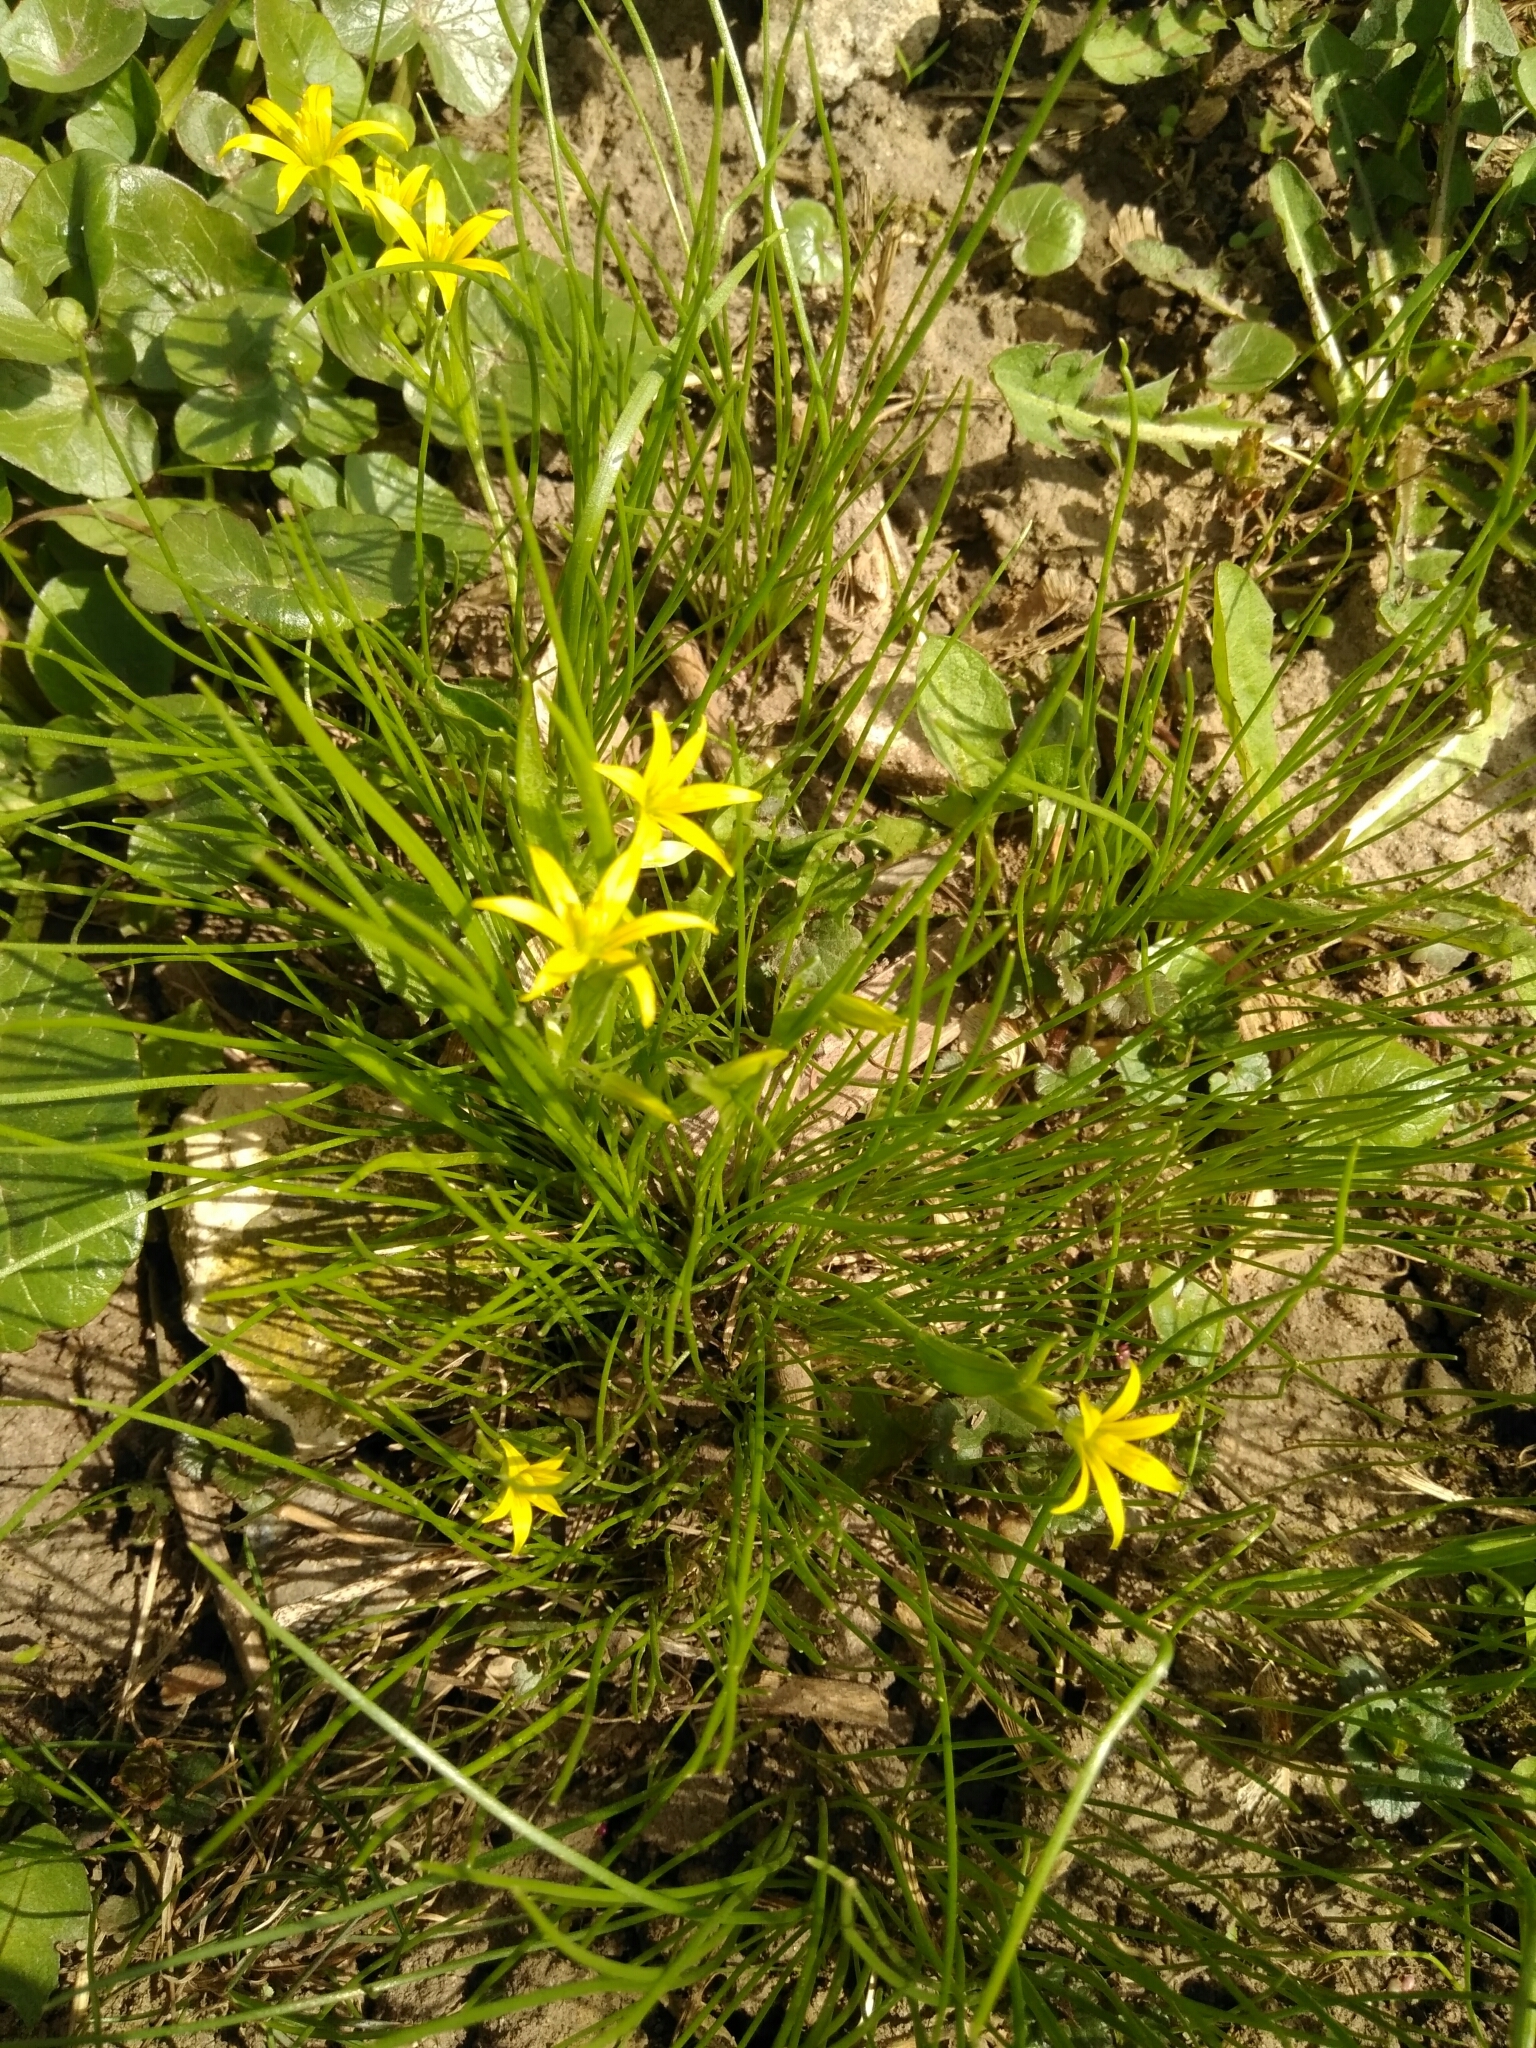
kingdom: Plantae
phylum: Tracheophyta
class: Liliopsida
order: Liliales
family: Liliaceae
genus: Gagea
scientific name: Gagea minima
